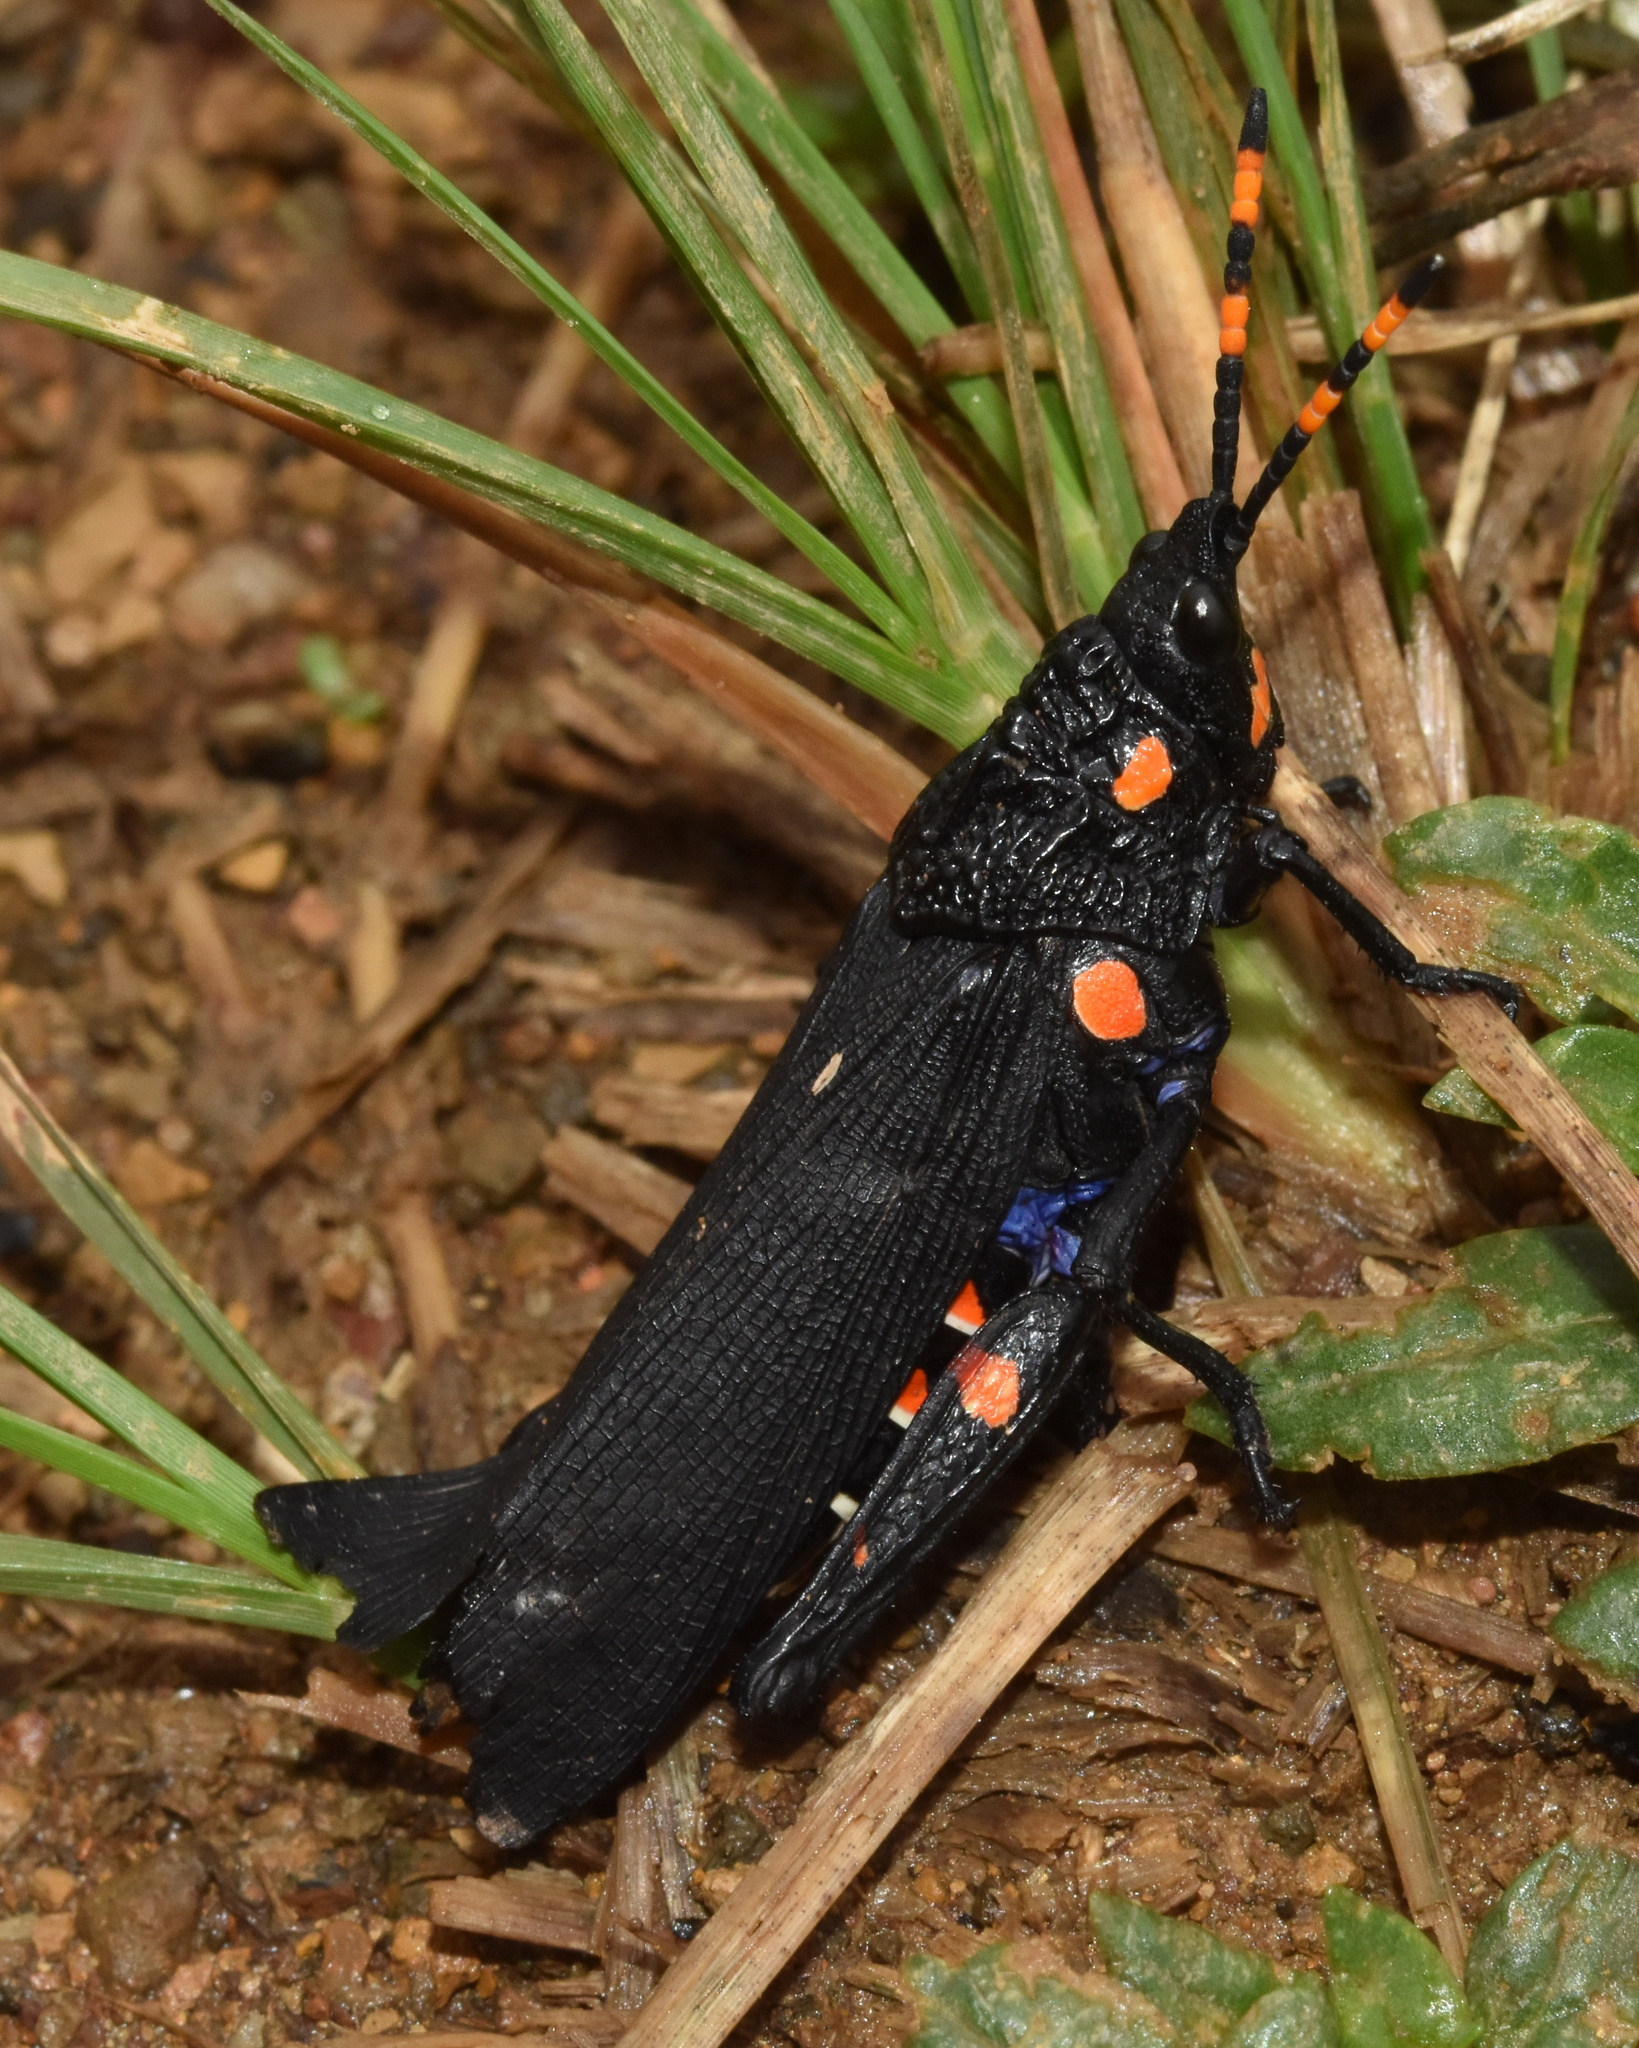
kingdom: Animalia
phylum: Arthropoda
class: Insecta
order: Orthoptera
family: Pyrgomorphidae
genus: Maura
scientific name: Maura rubroornata
